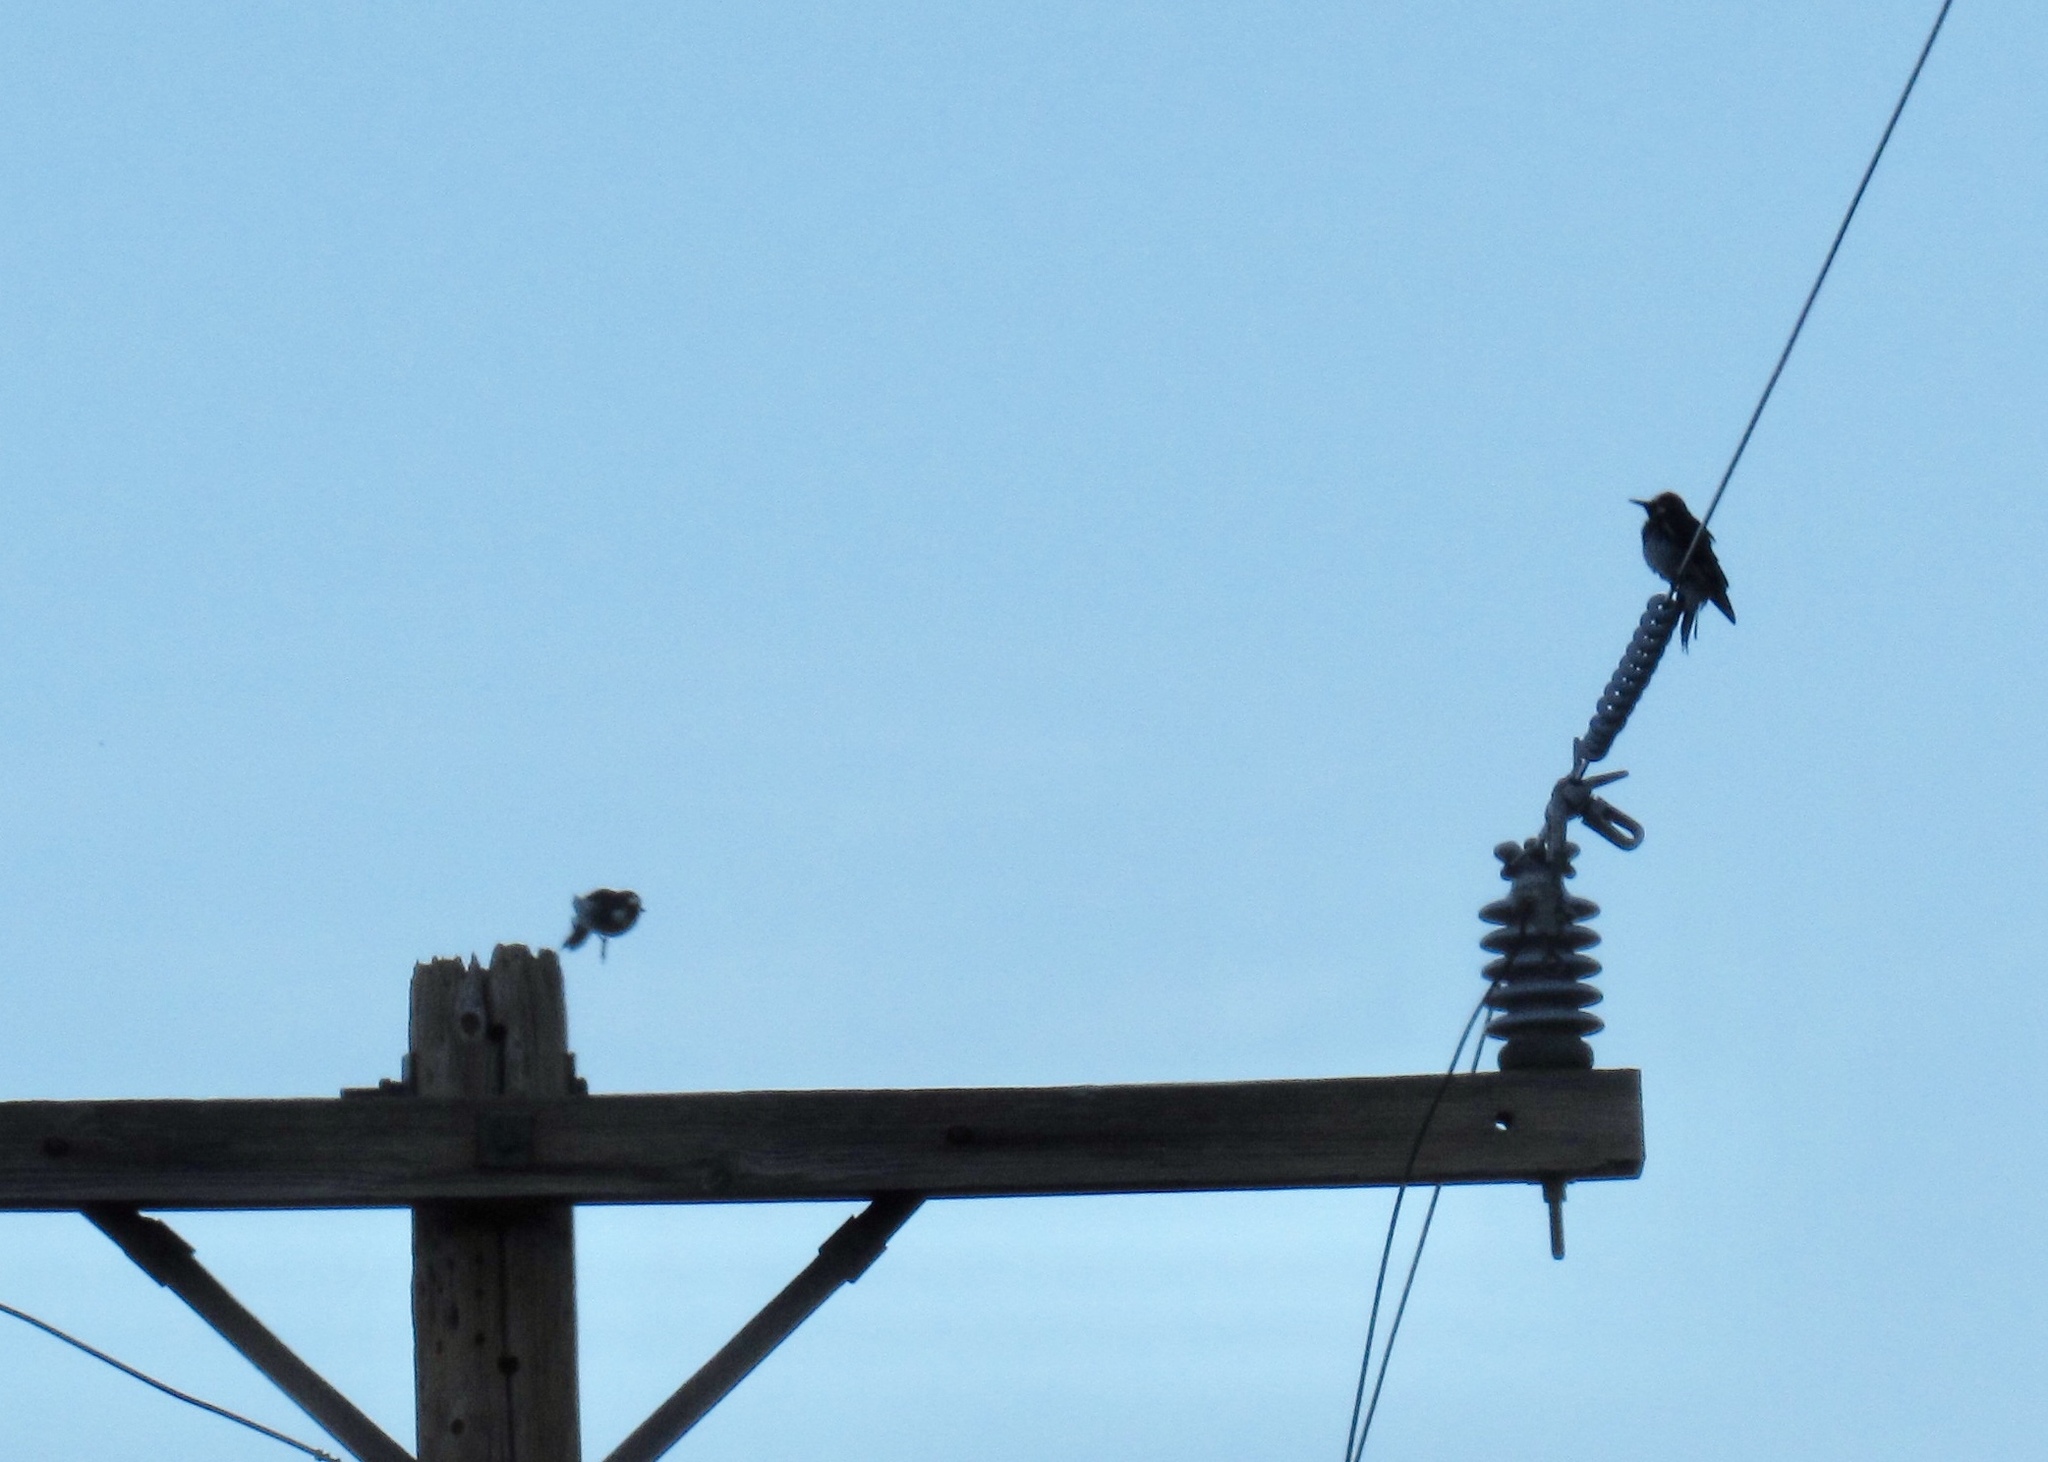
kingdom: Animalia
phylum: Chordata
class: Aves
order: Piciformes
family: Picidae
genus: Melanerpes
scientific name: Melanerpes formicivorus
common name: Acorn woodpecker
